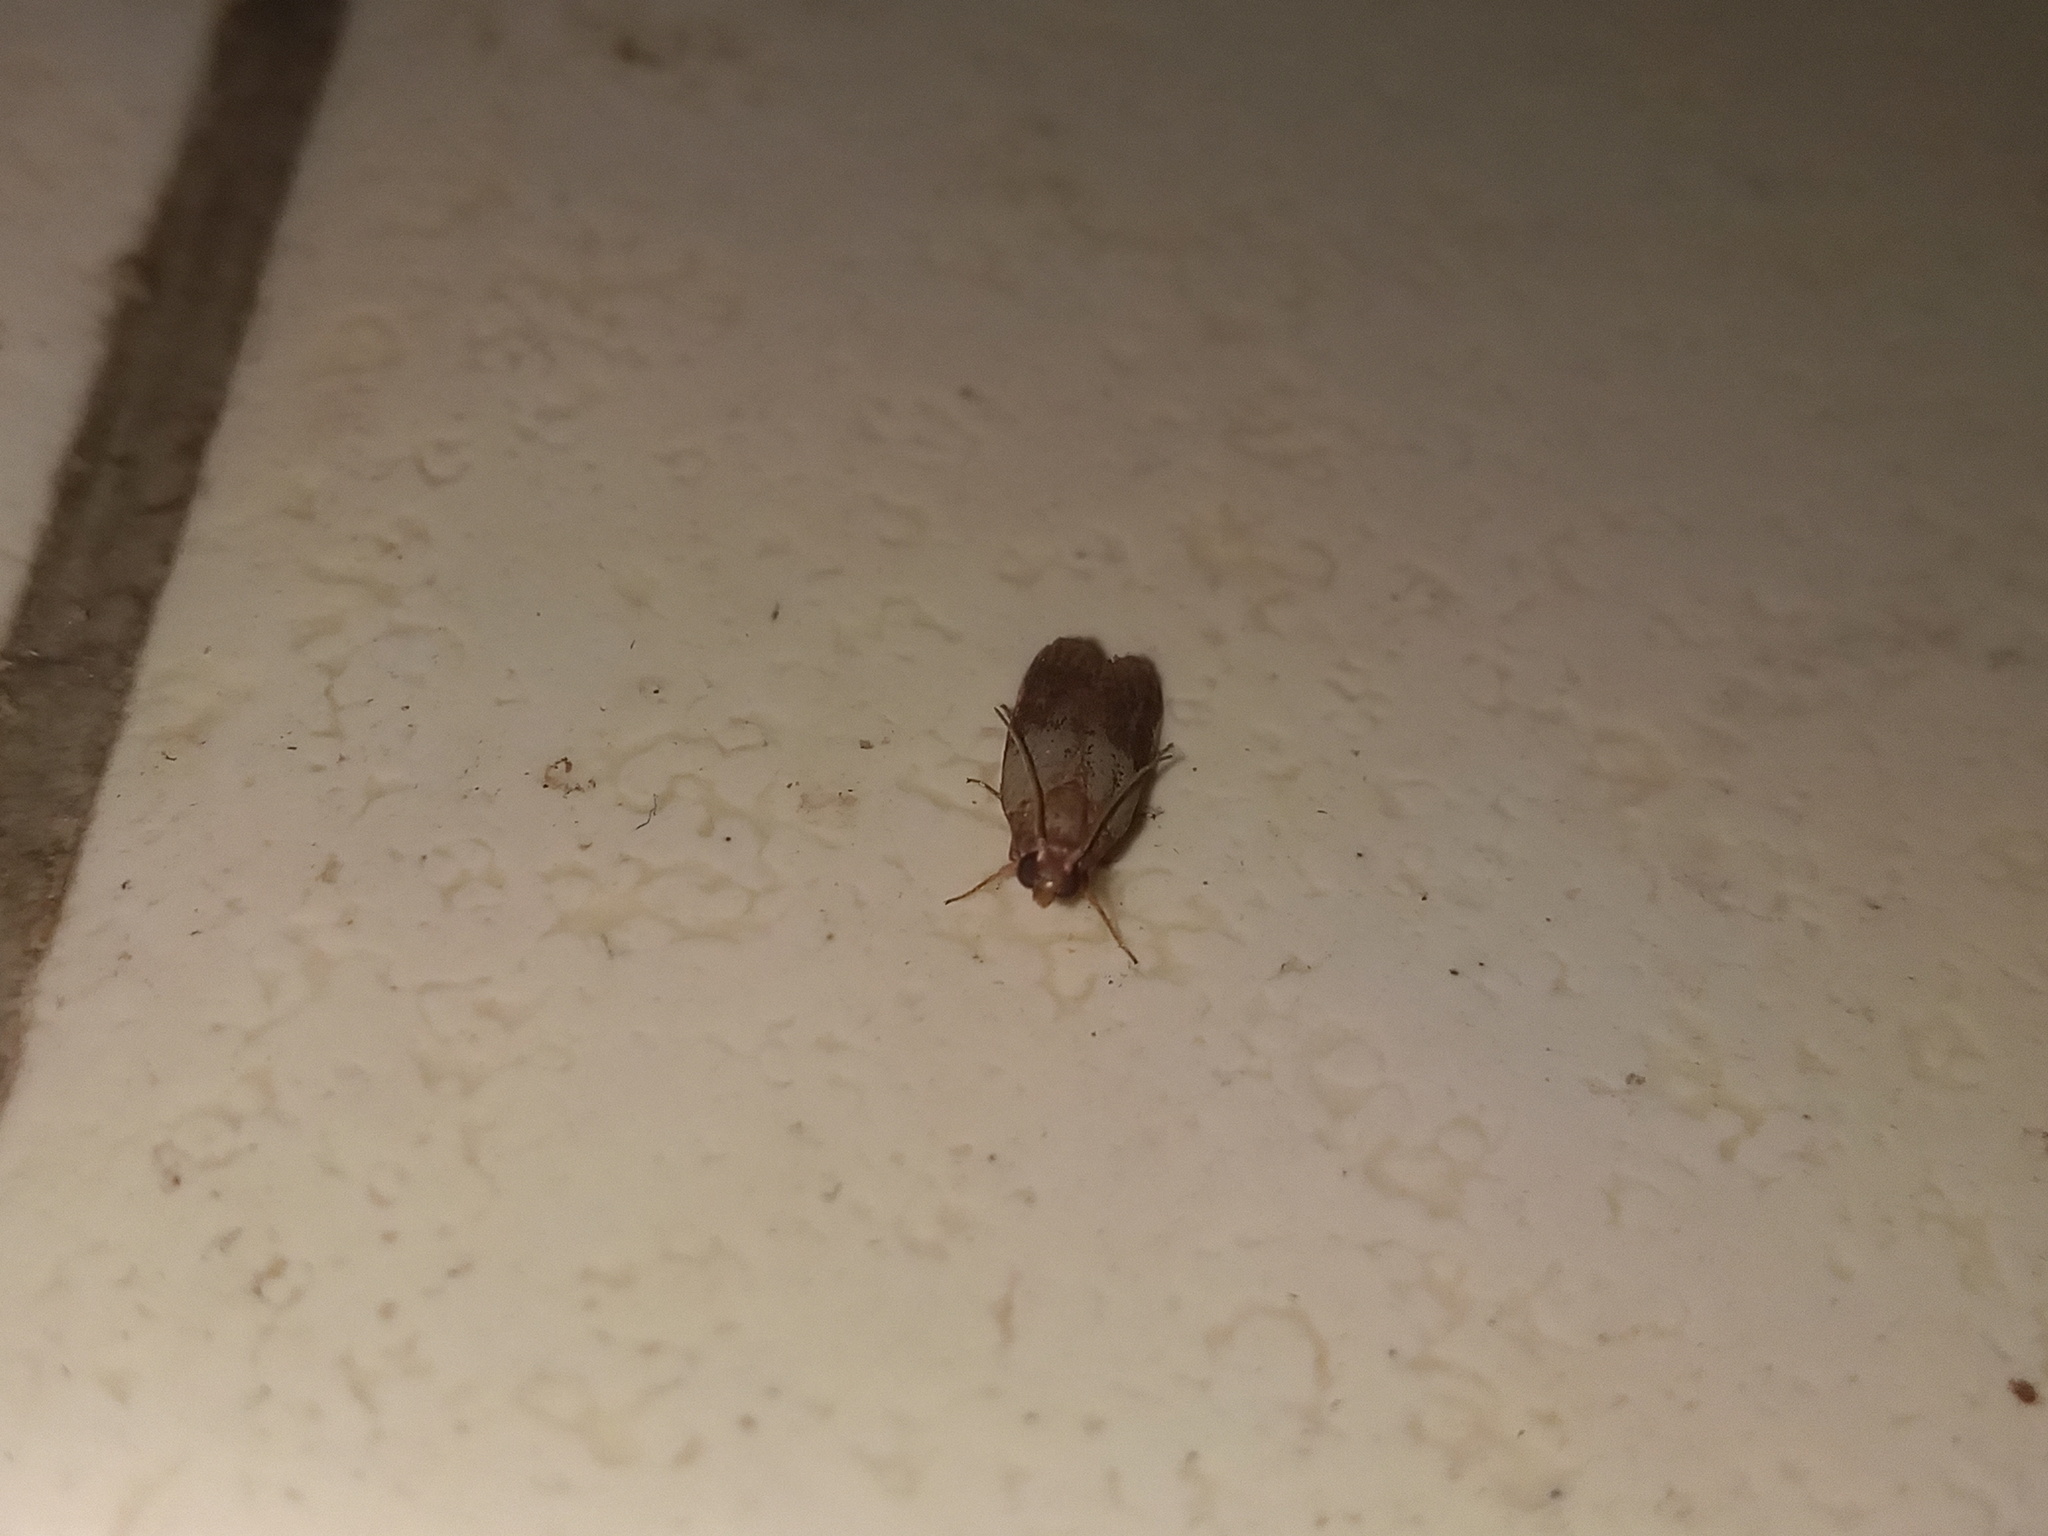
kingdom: Animalia
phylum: Arthropoda
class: Insecta
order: Lepidoptera
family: Pyralidae
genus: Plodia
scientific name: Plodia interpunctella
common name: Indian meal moth
